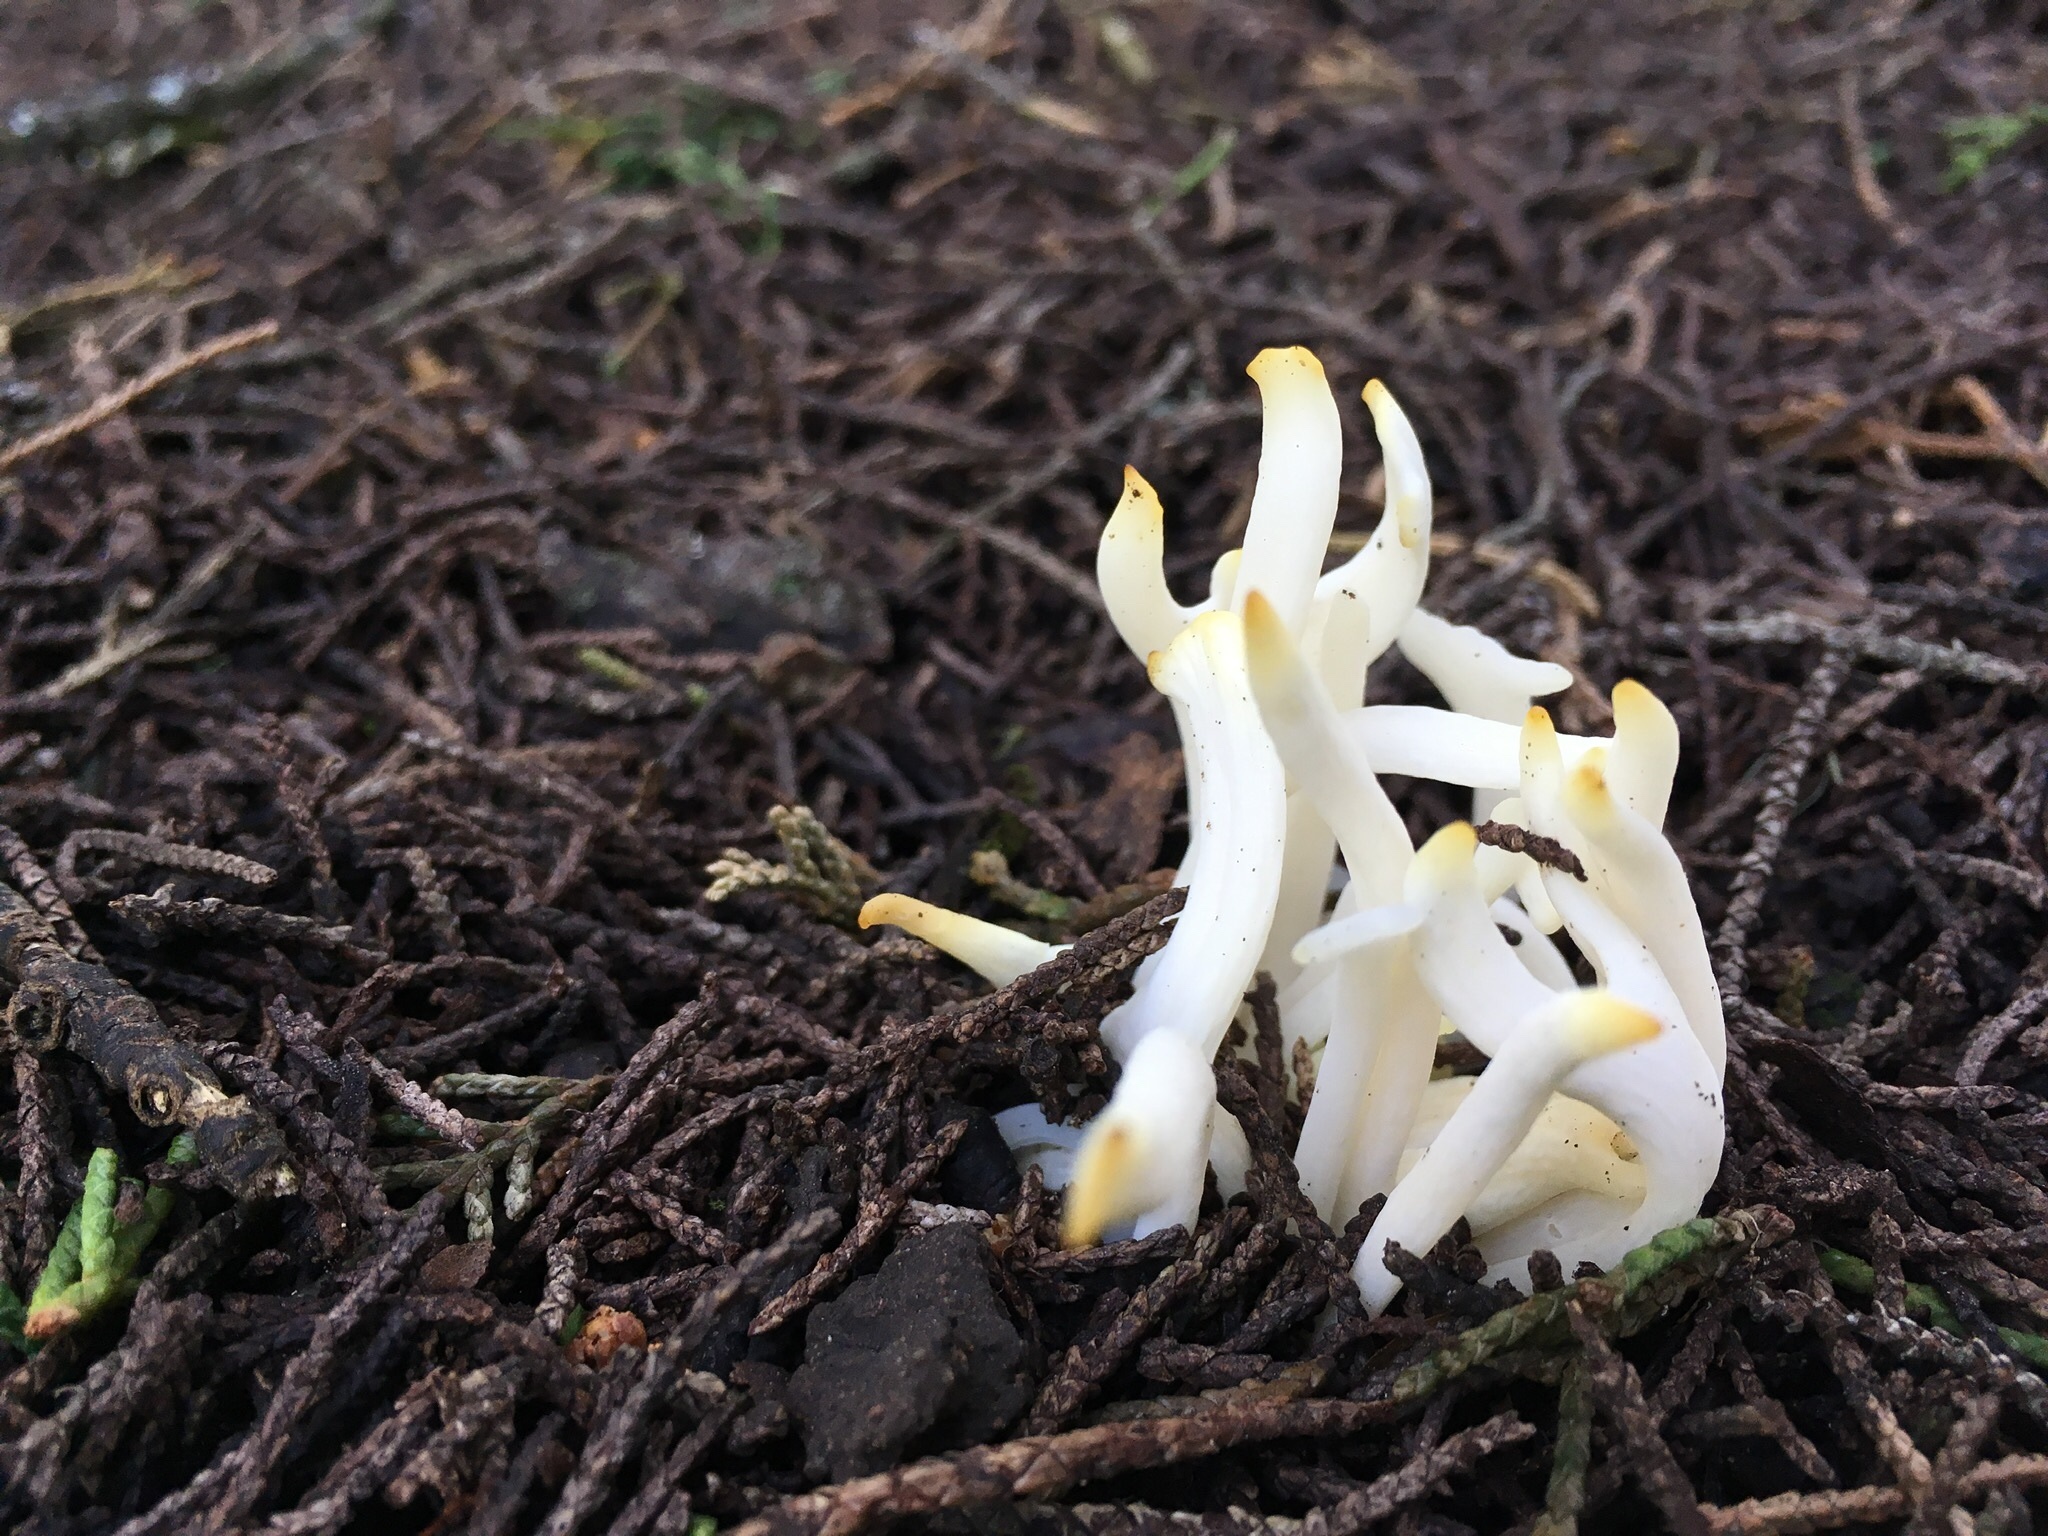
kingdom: Fungi
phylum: Basidiomycota
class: Agaricomycetes
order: Agaricales
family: Clavariaceae
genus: Clavaria
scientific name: Clavaria fragilis
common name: White spindles
